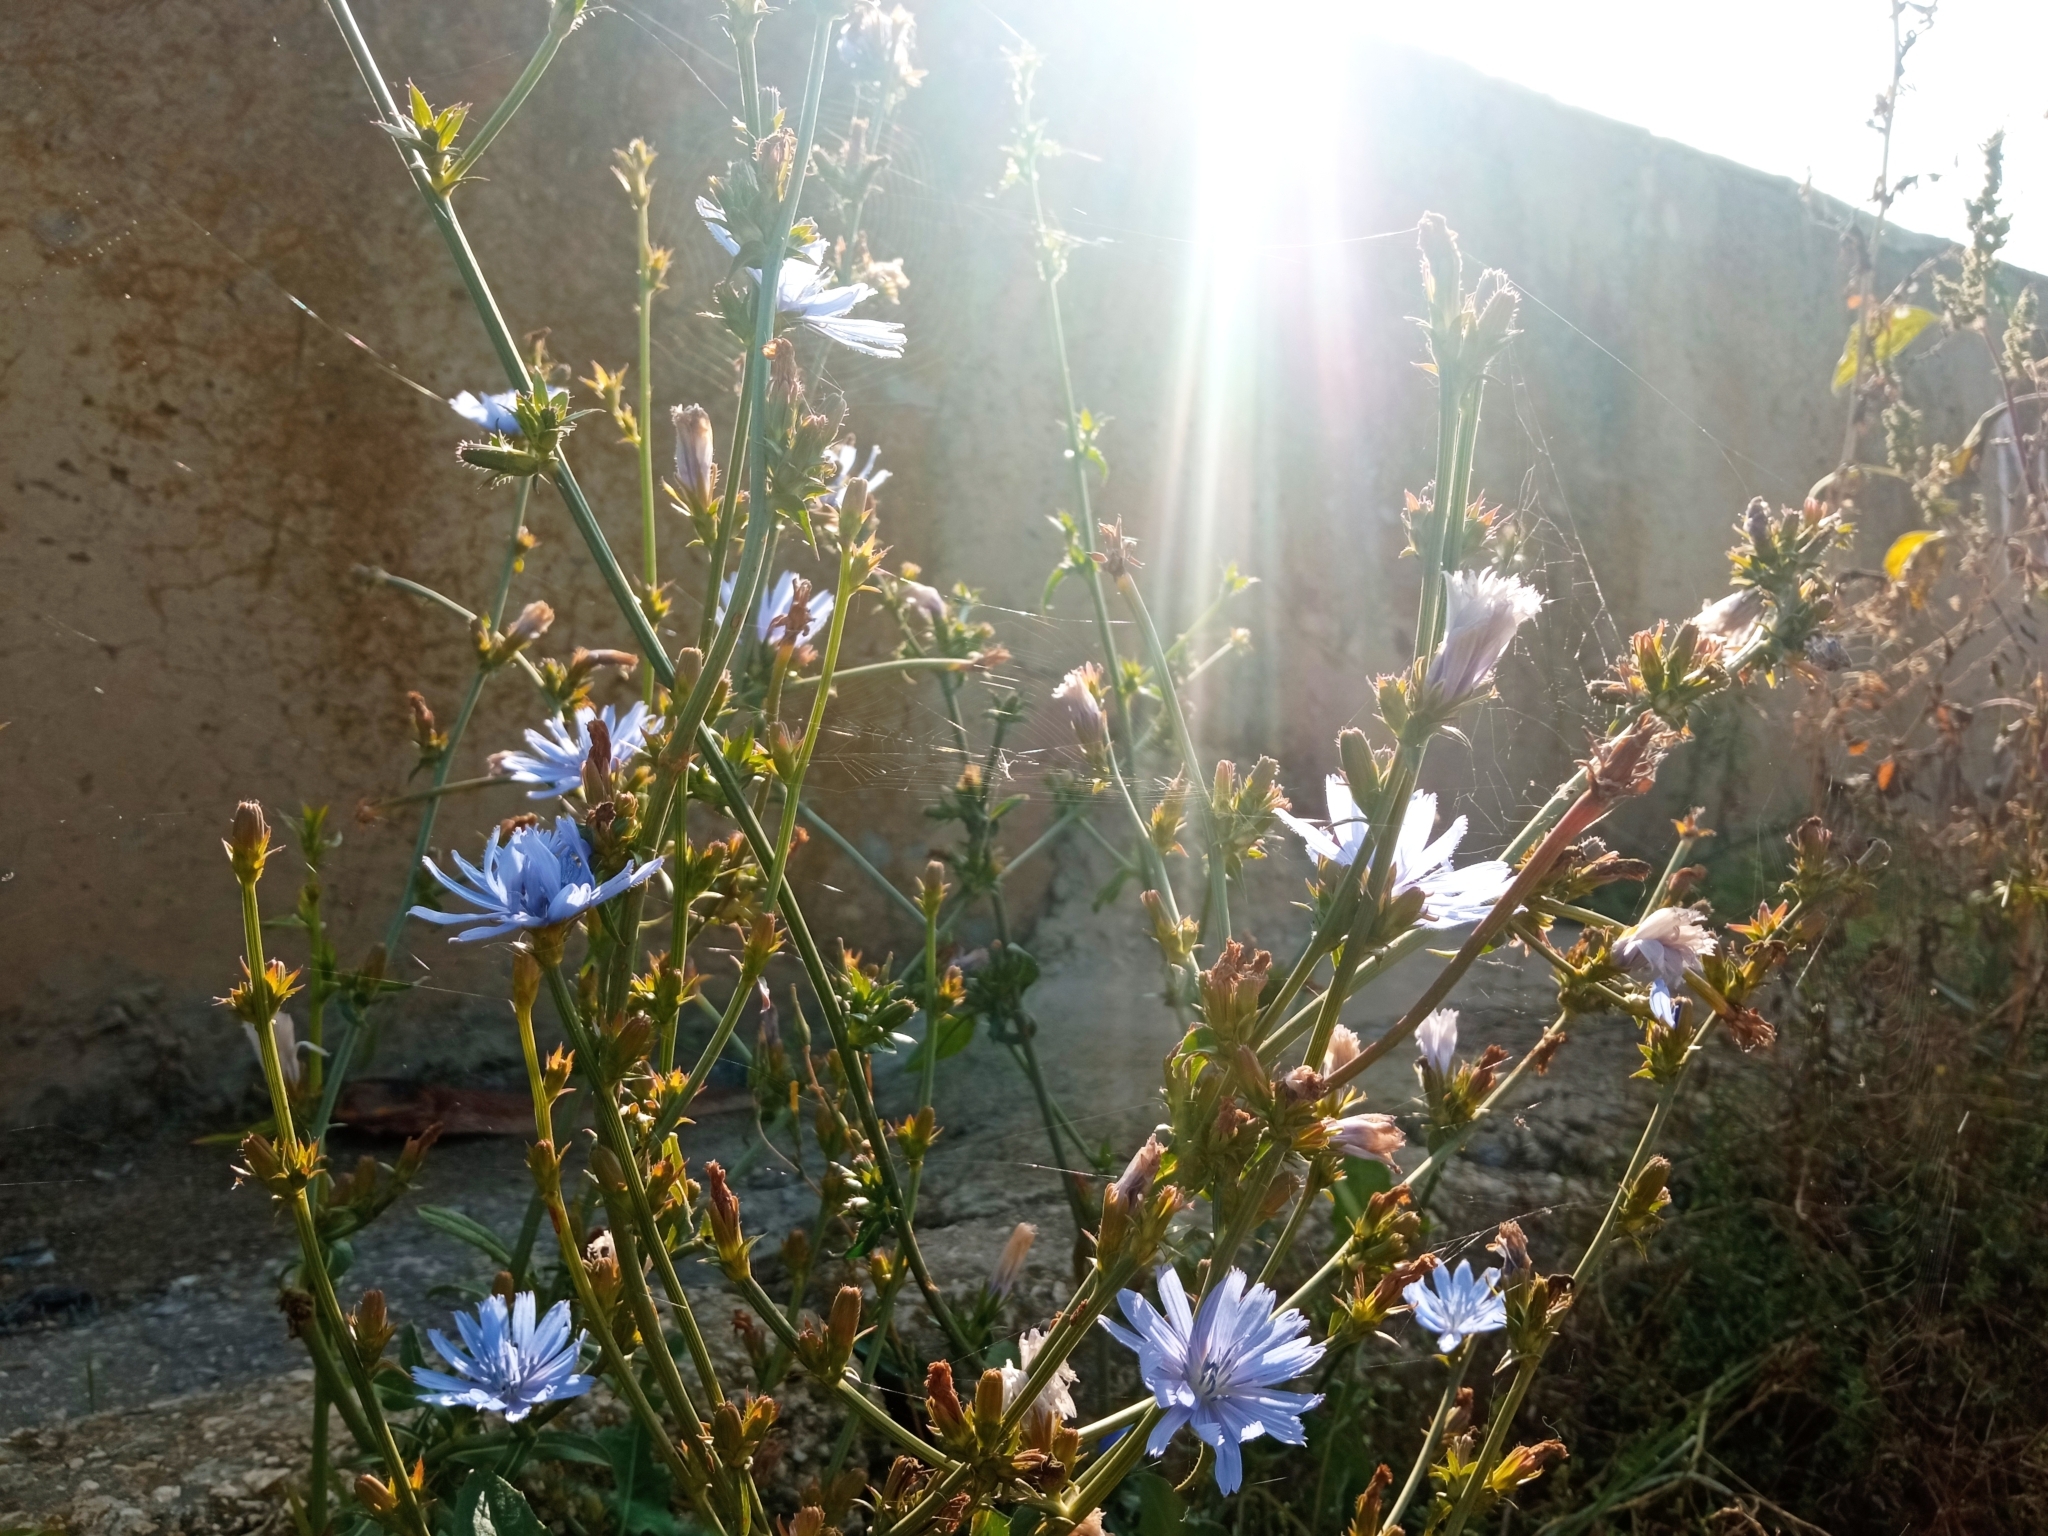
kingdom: Plantae
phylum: Tracheophyta
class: Magnoliopsida
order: Asterales
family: Asteraceae
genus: Cichorium
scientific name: Cichorium intybus
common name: Chicory
